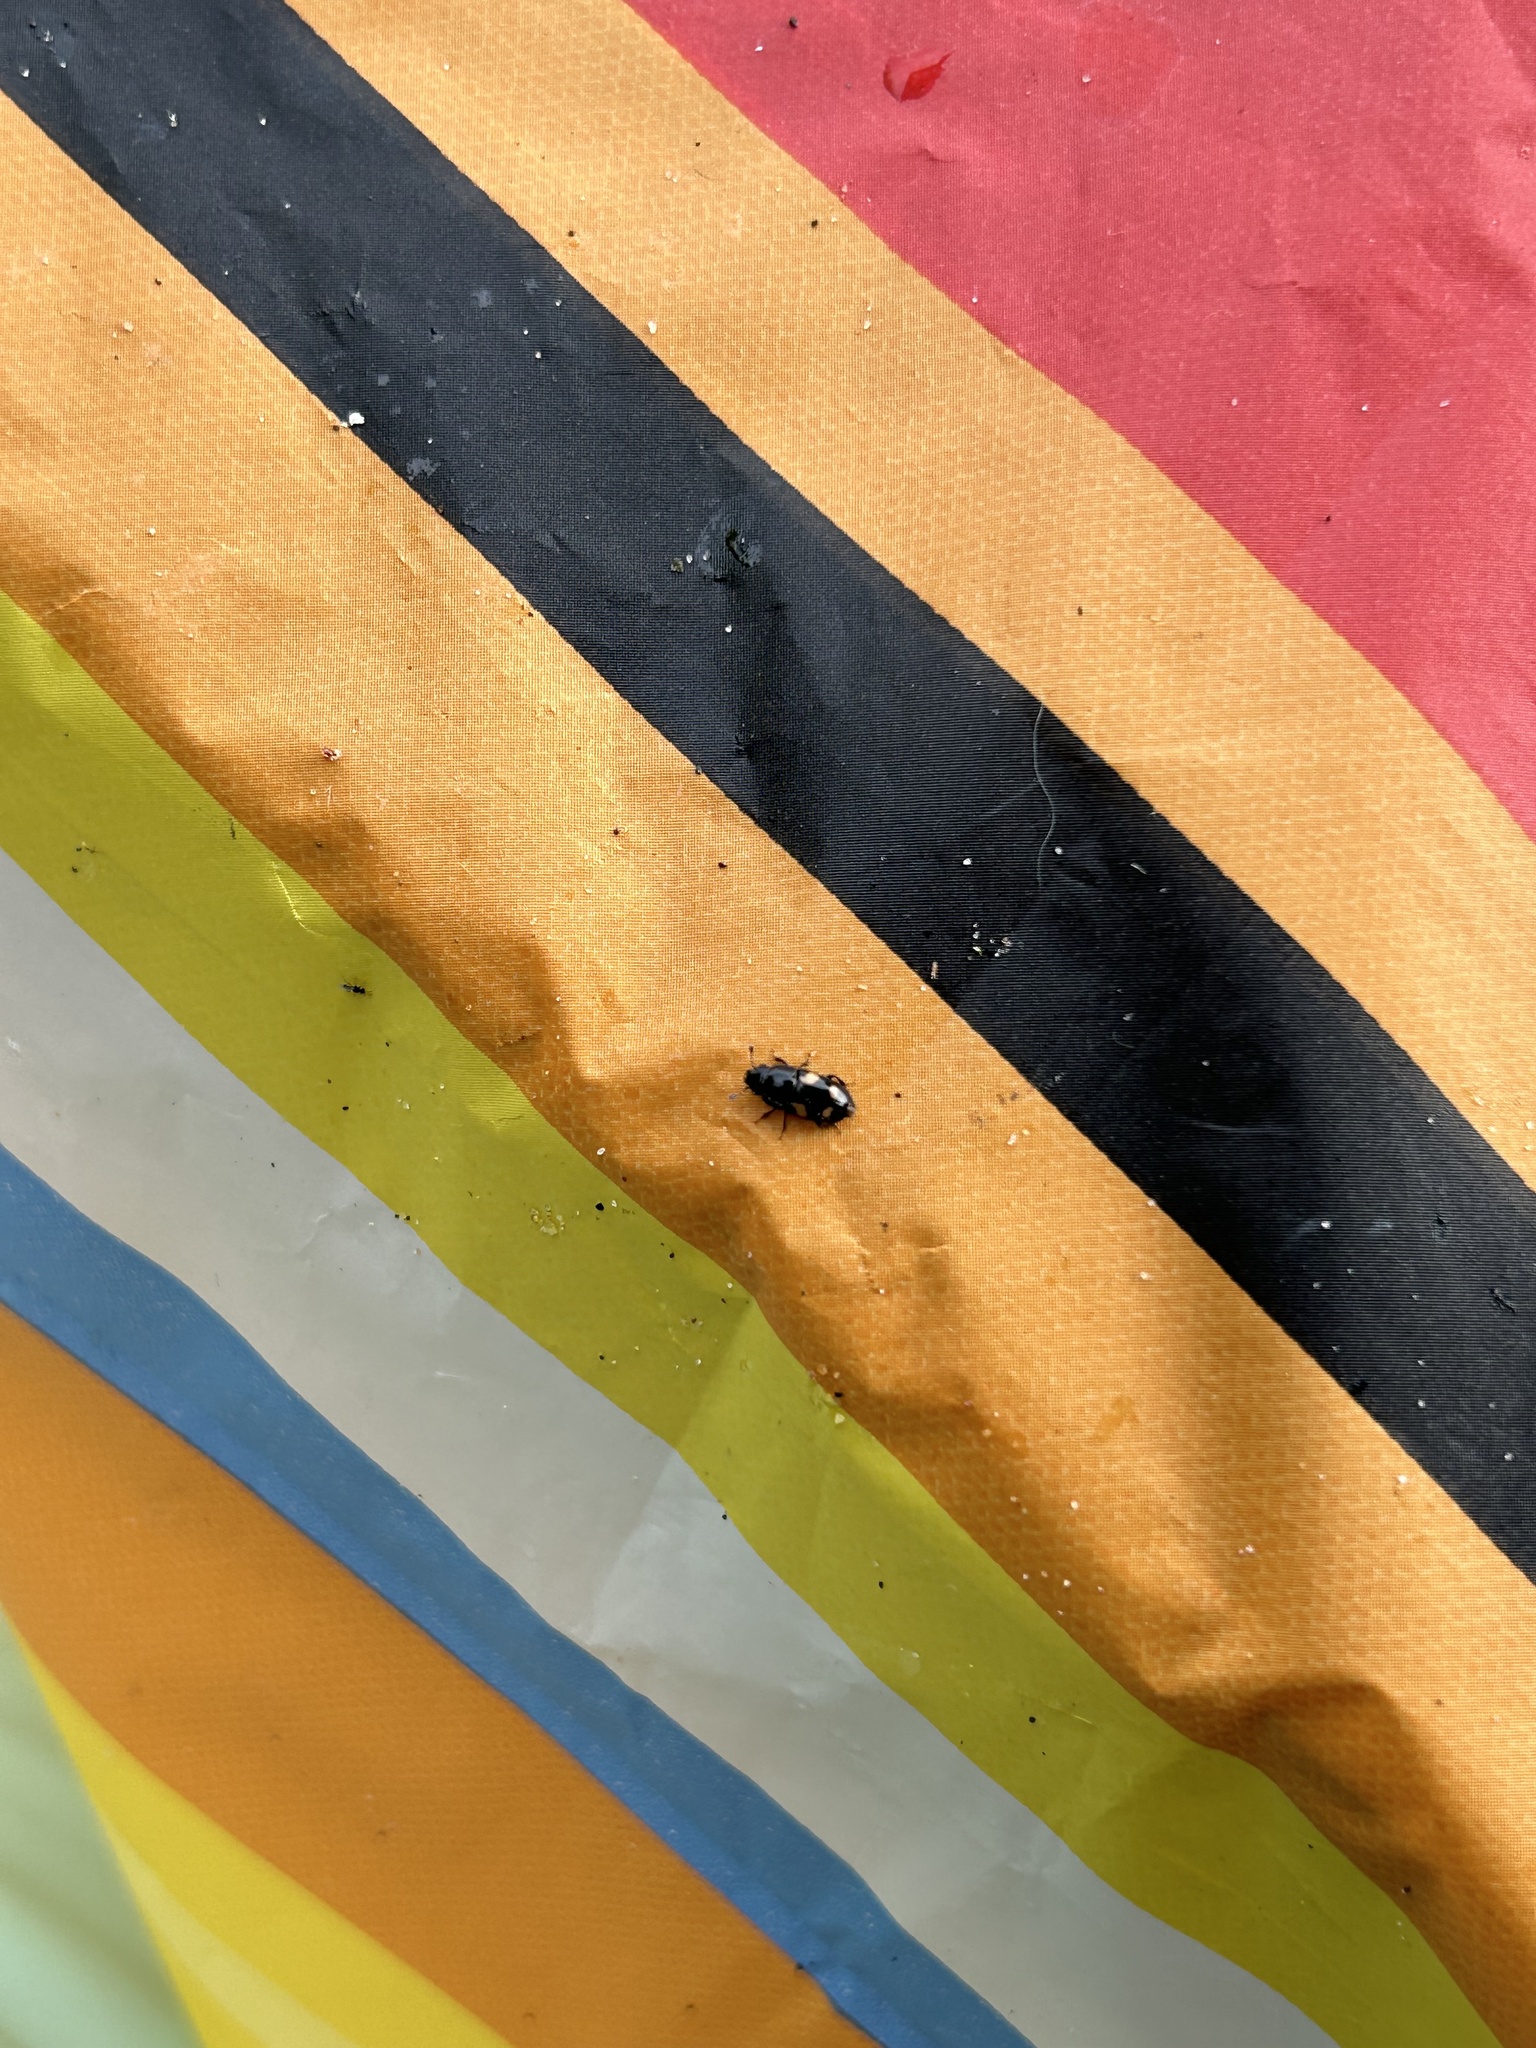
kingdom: Animalia
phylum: Arthropoda
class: Insecta
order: Coleoptera
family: Nitidulidae
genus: Glischrochilus
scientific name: Glischrochilus quadrisignatus
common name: Picnic beetle
